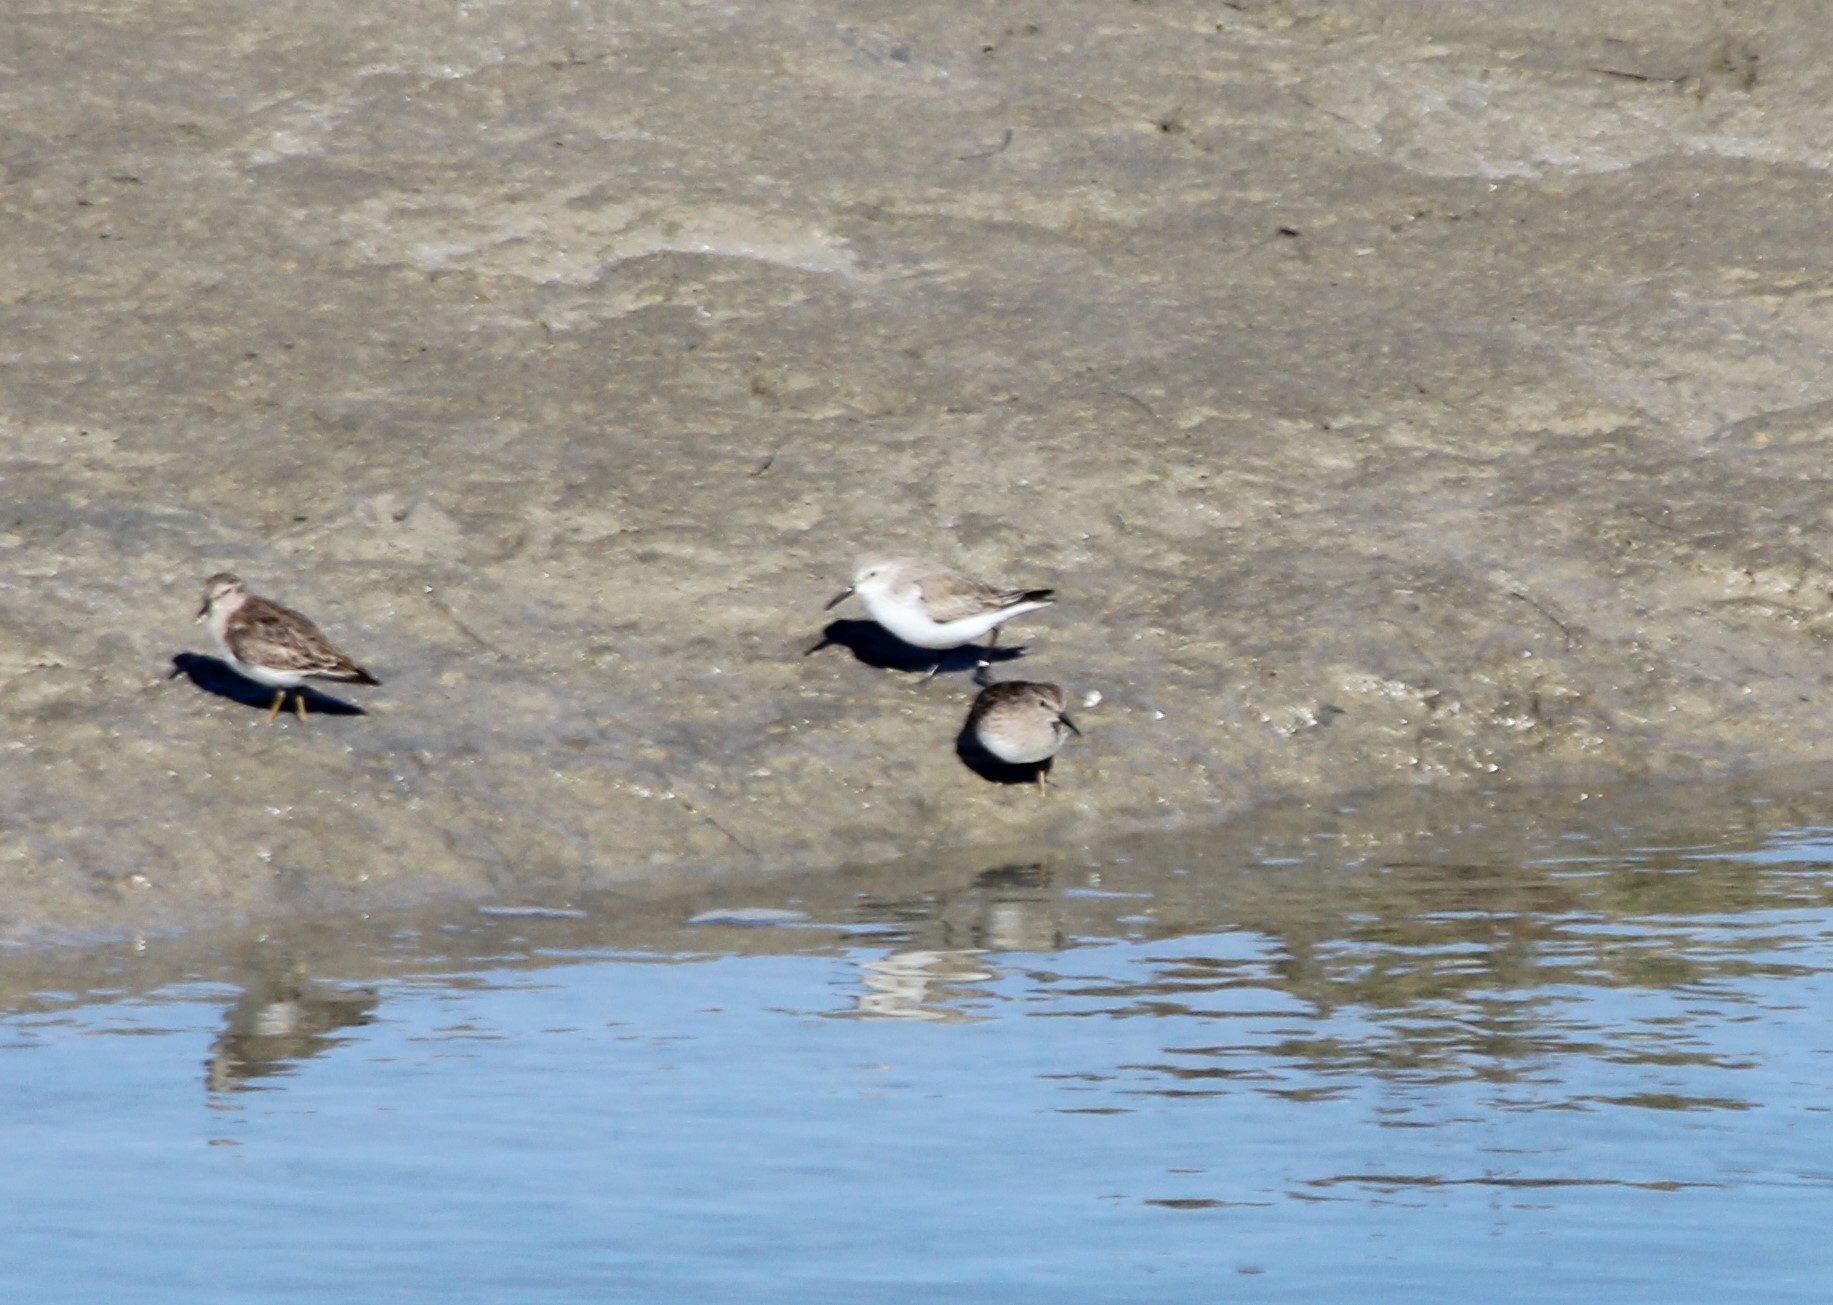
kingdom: Animalia
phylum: Chordata
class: Aves
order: Charadriiformes
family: Scolopacidae
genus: Calidris
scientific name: Calidris mauri
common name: Western sandpiper
